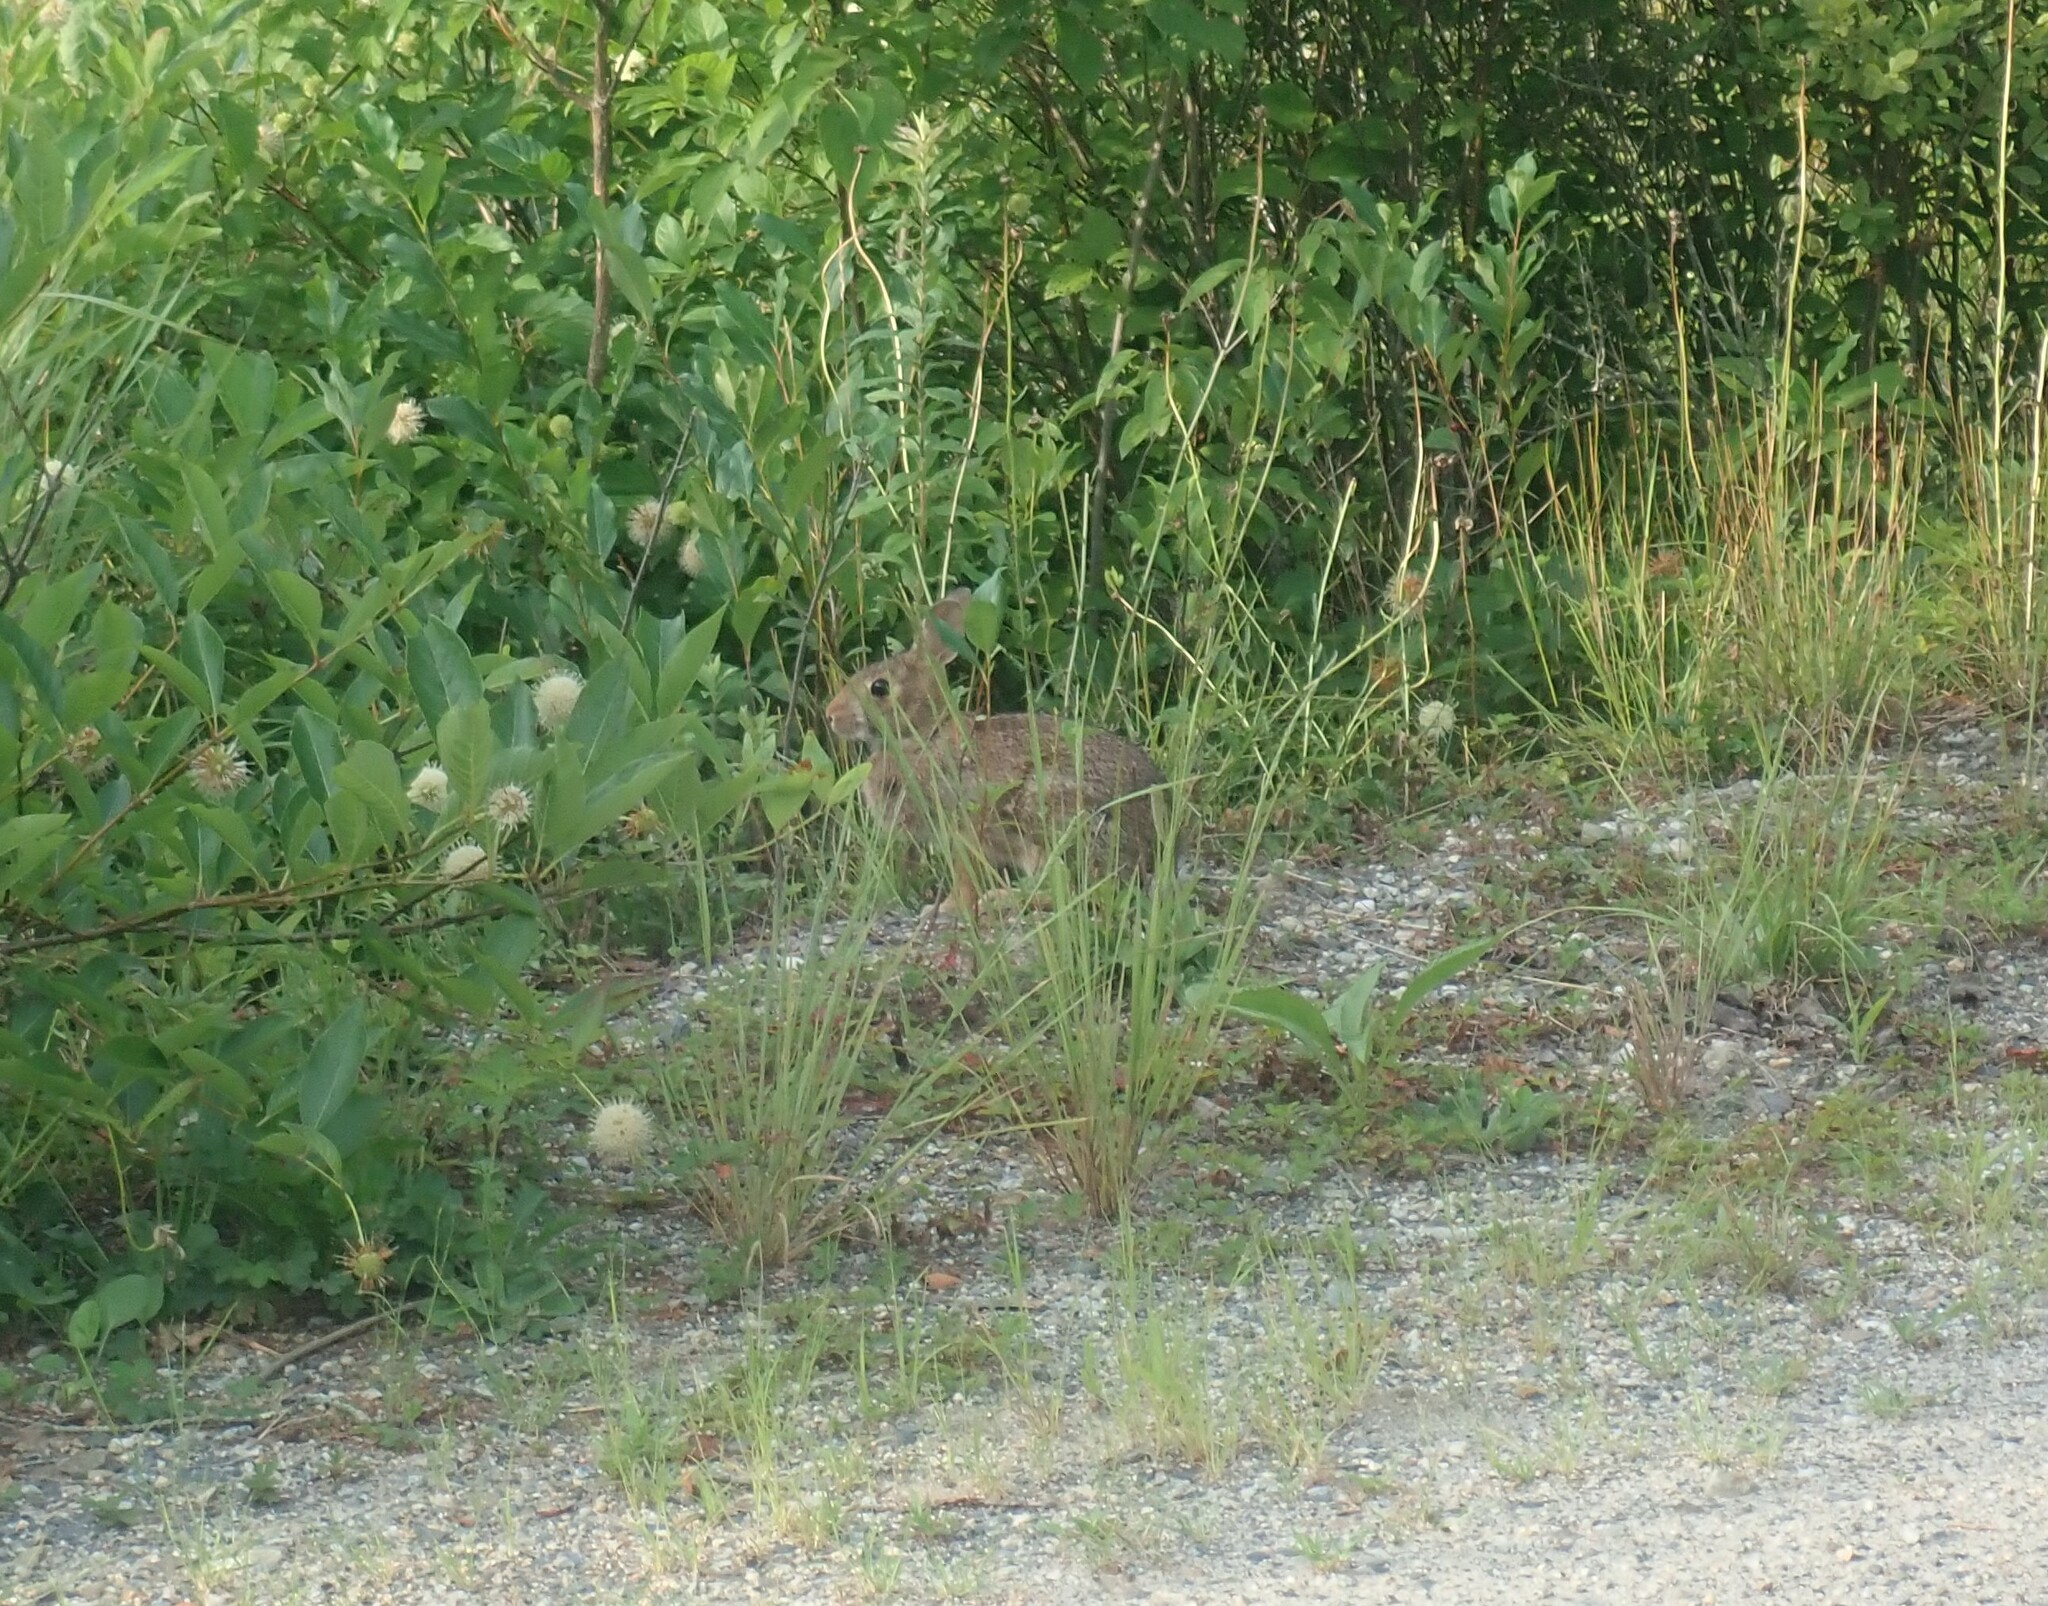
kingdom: Animalia
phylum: Chordata
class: Mammalia
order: Lagomorpha
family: Leporidae
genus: Sylvilagus
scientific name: Sylvilagus floridanus
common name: Eastern cottontail
